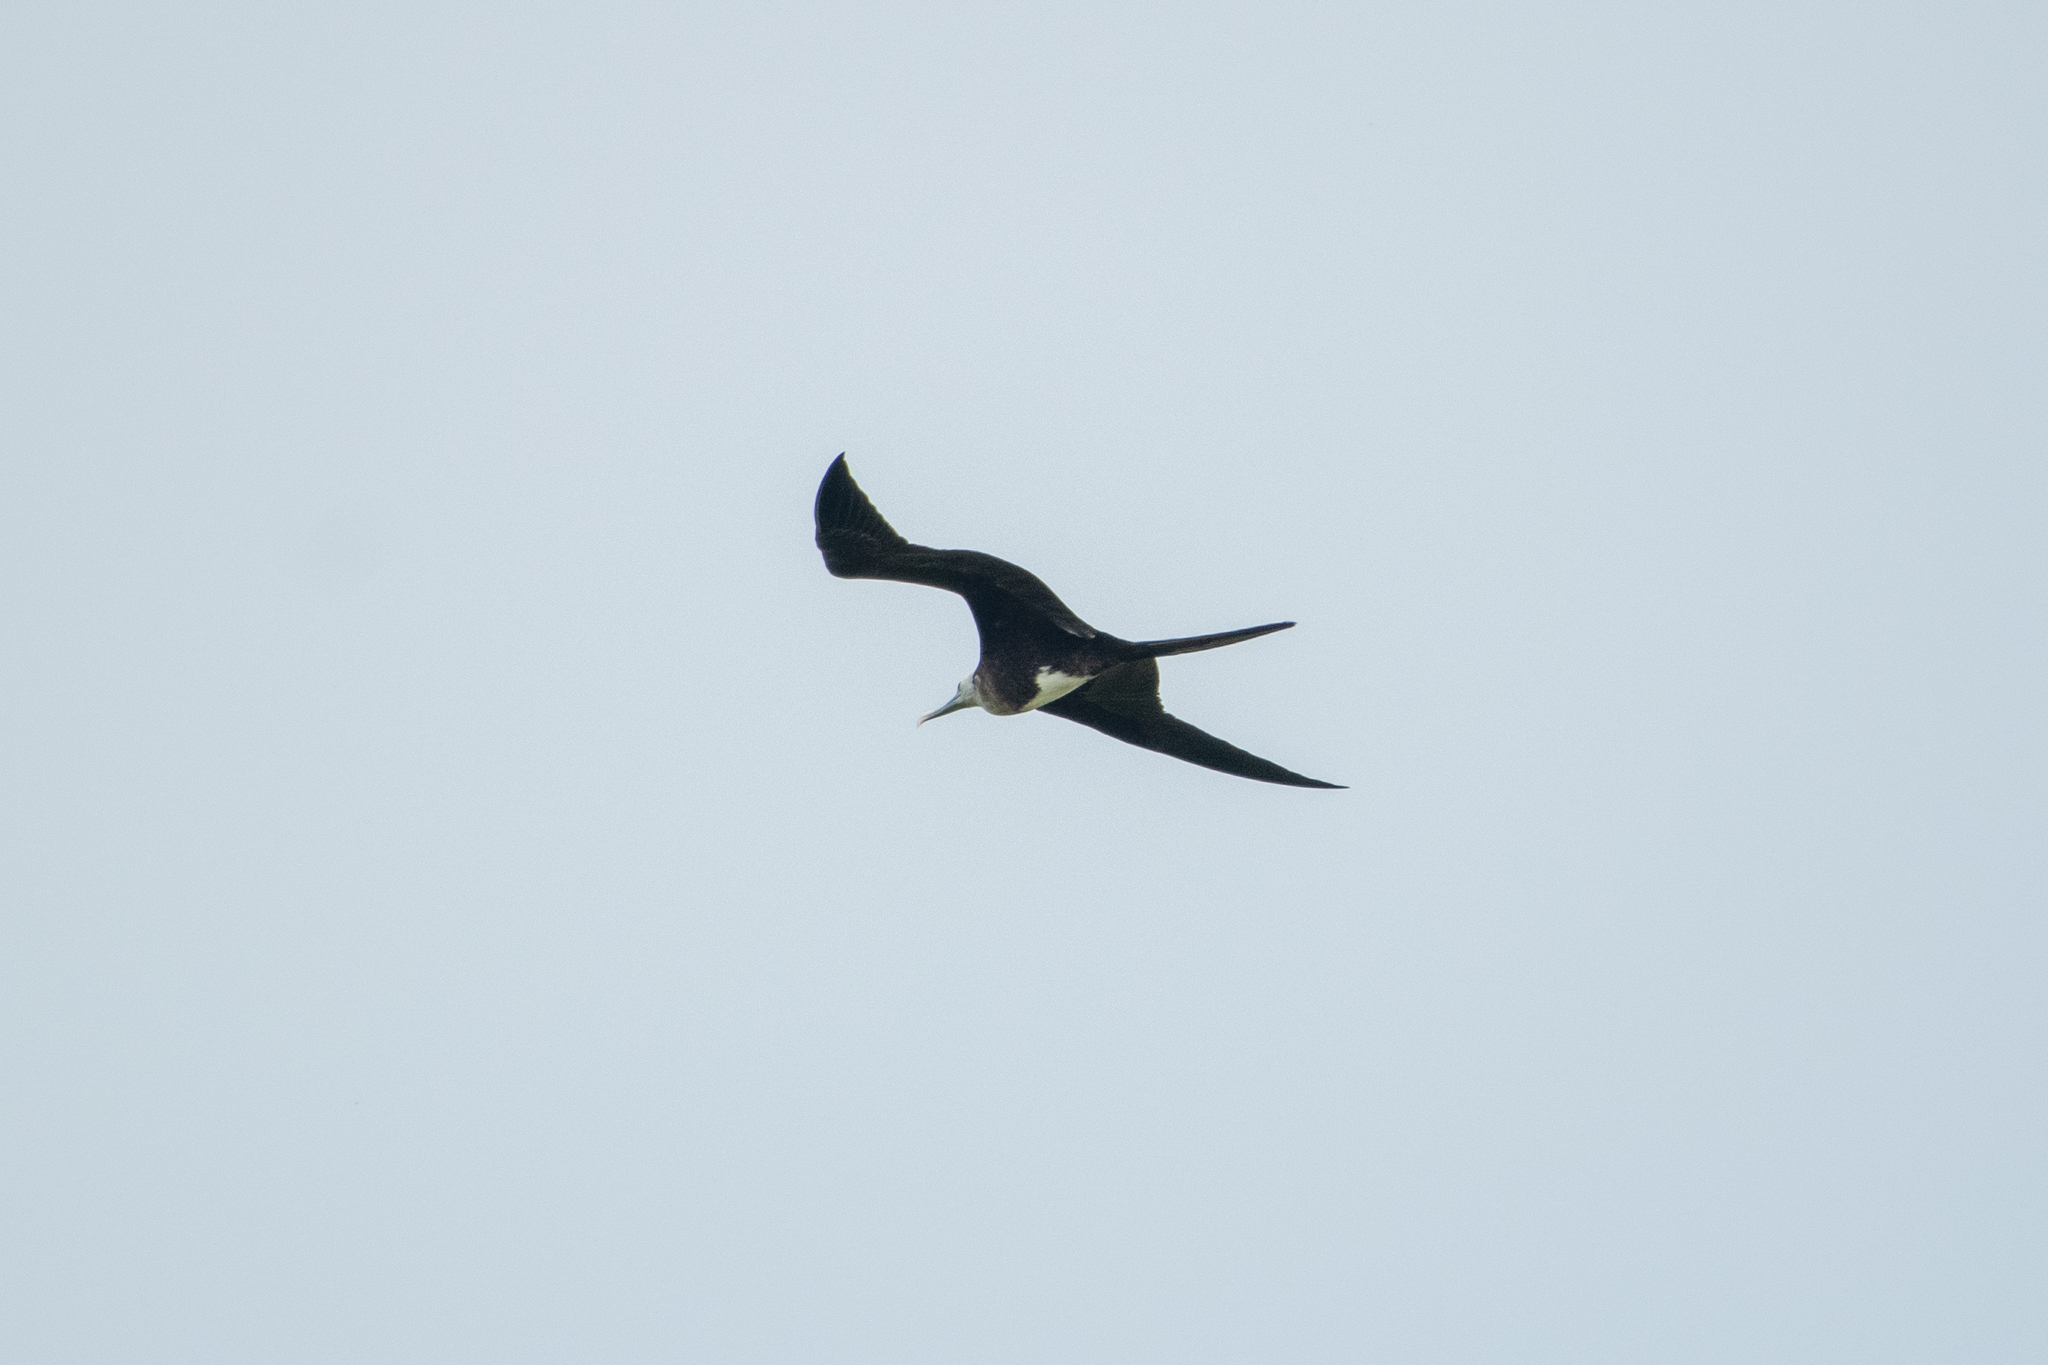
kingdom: Animalia
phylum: Chordata
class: Aves
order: Suliformes
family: Fregatidae
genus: Fregata
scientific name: Fregata magnificens
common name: Magnificent frigatebird
